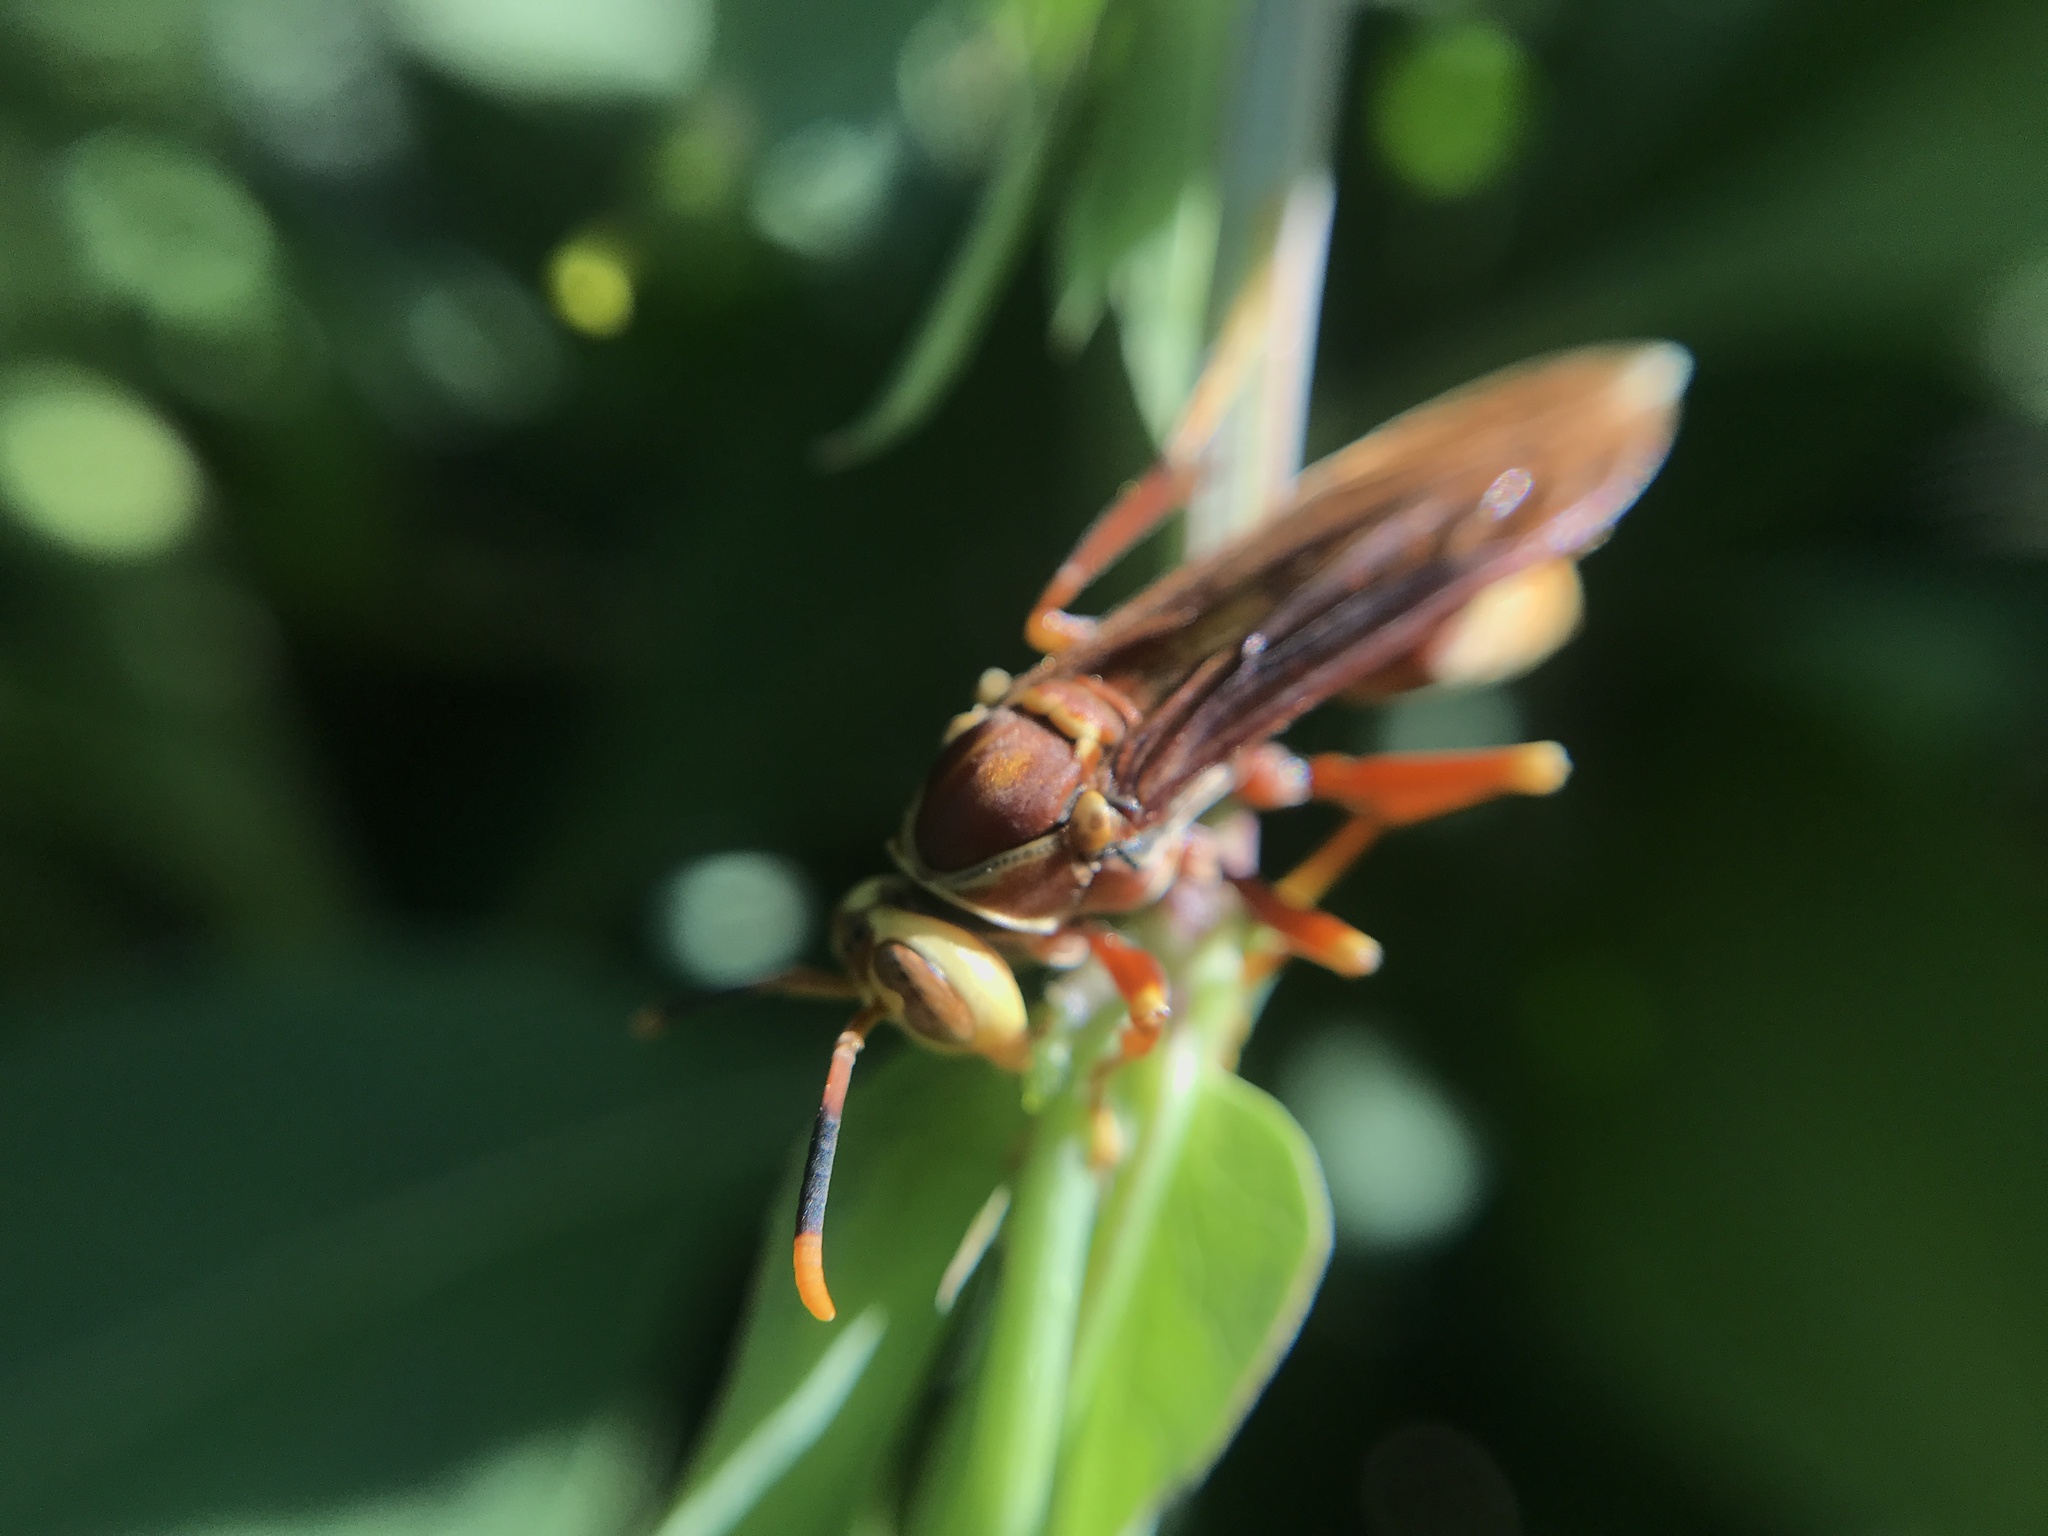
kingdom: Animalia
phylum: Arthropoda
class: Insecta
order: Hymenoptera
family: Eumenidae
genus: Polistes
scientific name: Polistes cavapyta
